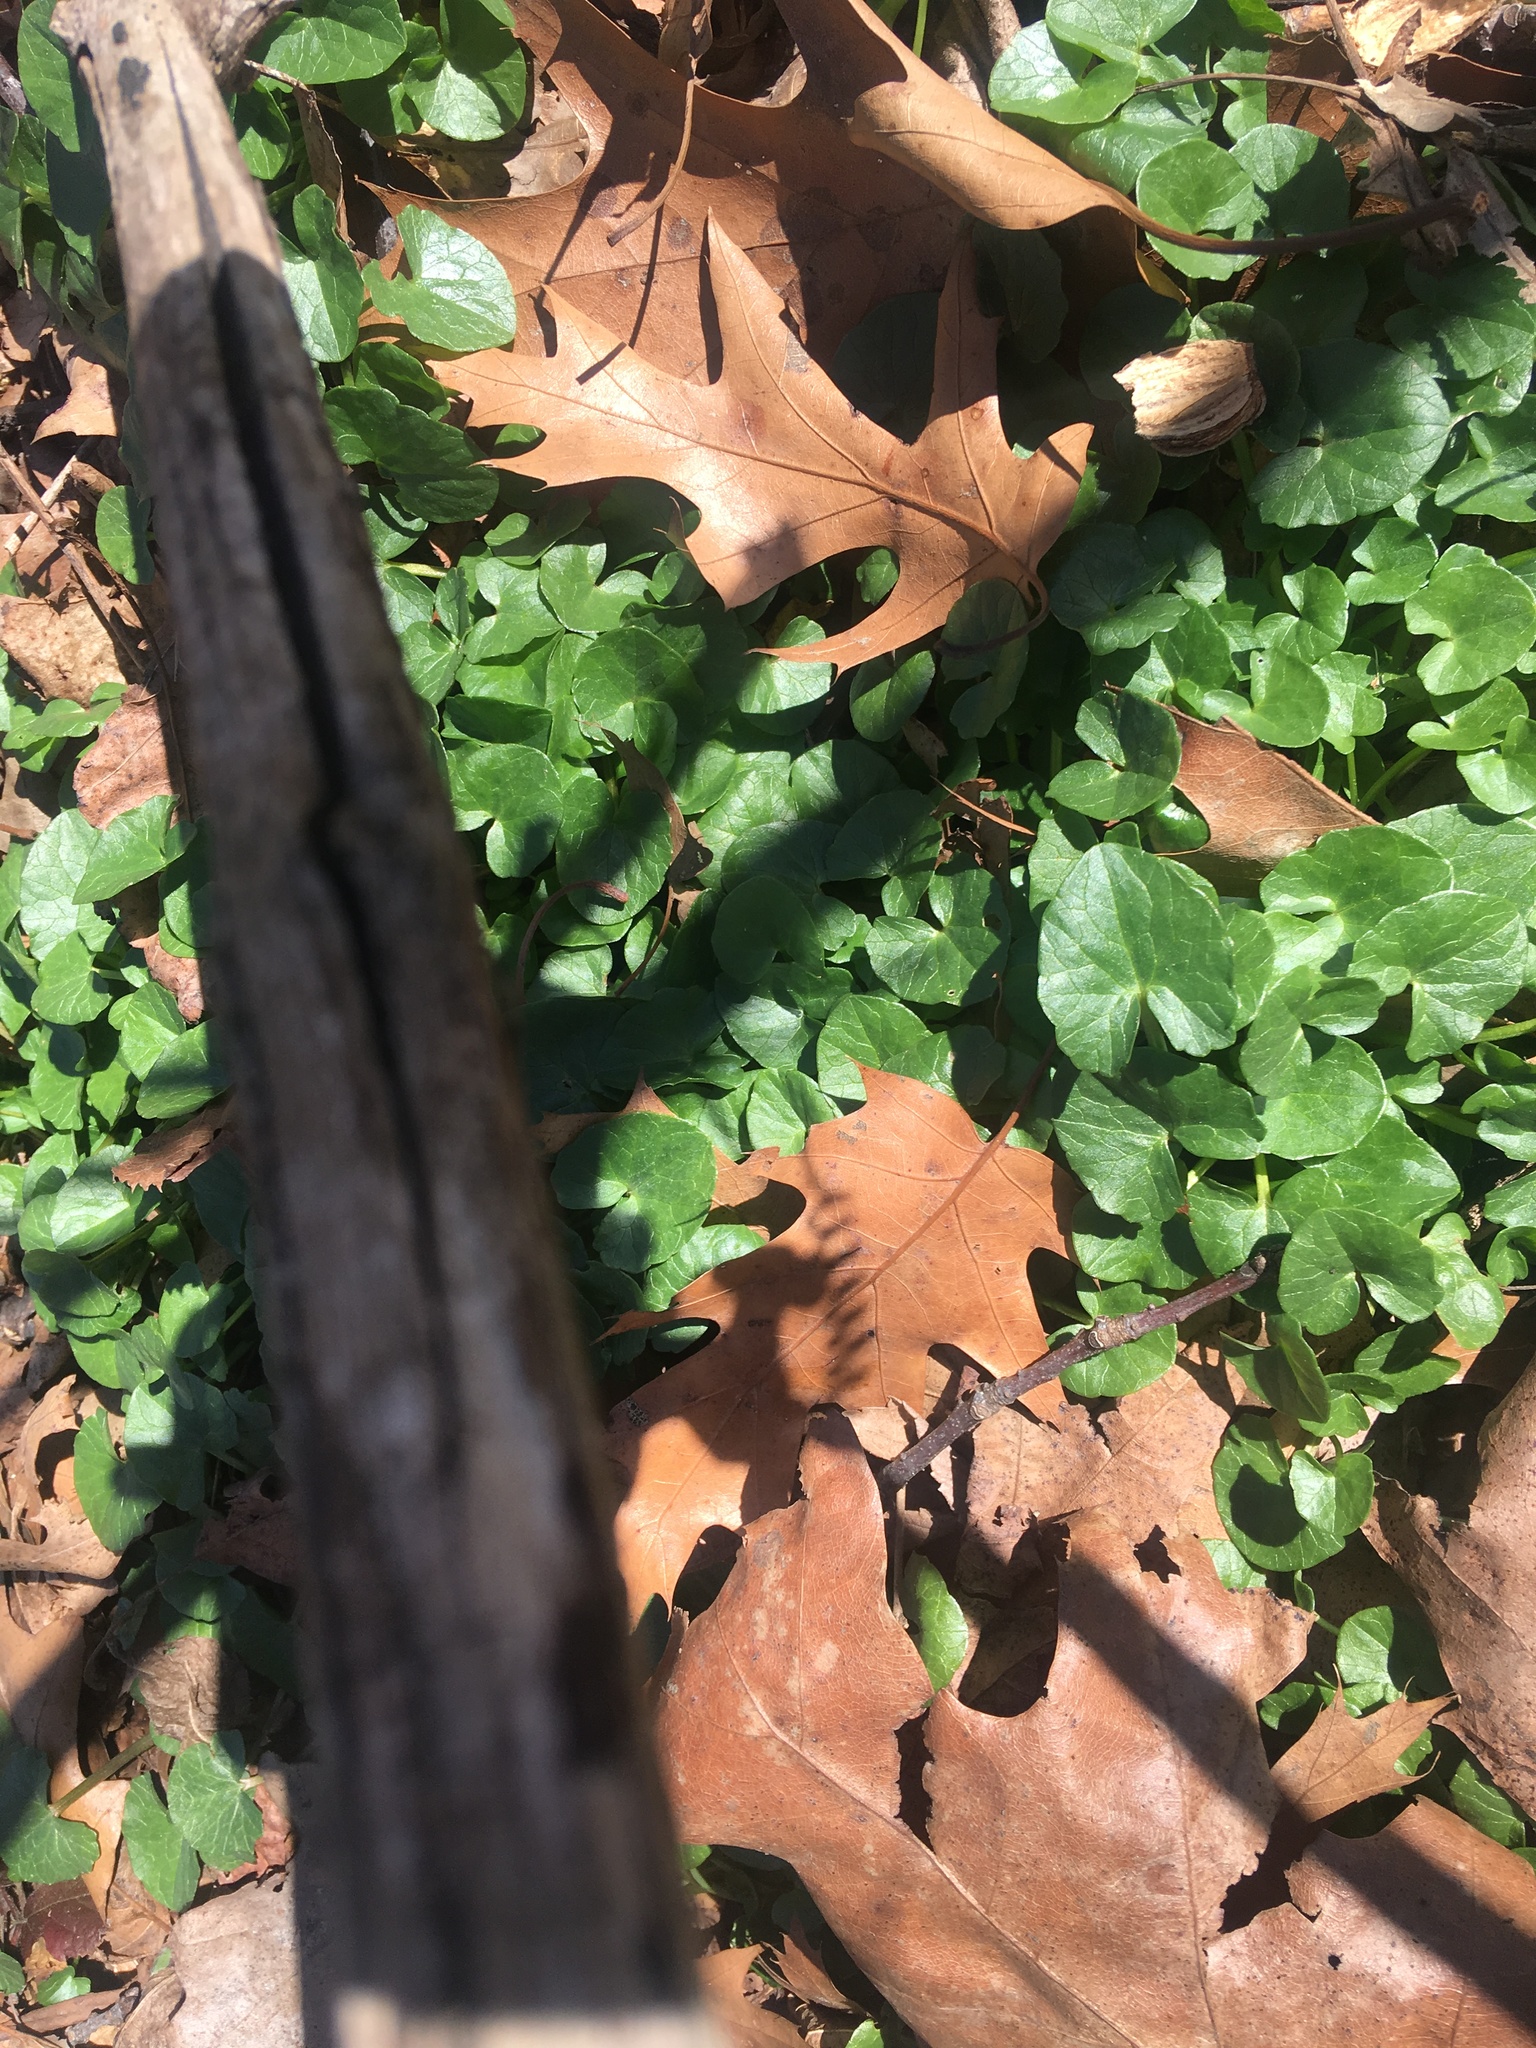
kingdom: Plantae
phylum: Tracheophyta
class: Magnoliopsida
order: Ranunculales
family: Ranunculaceae
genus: Ficaria
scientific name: Ficaria verna
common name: Lesser celandine
